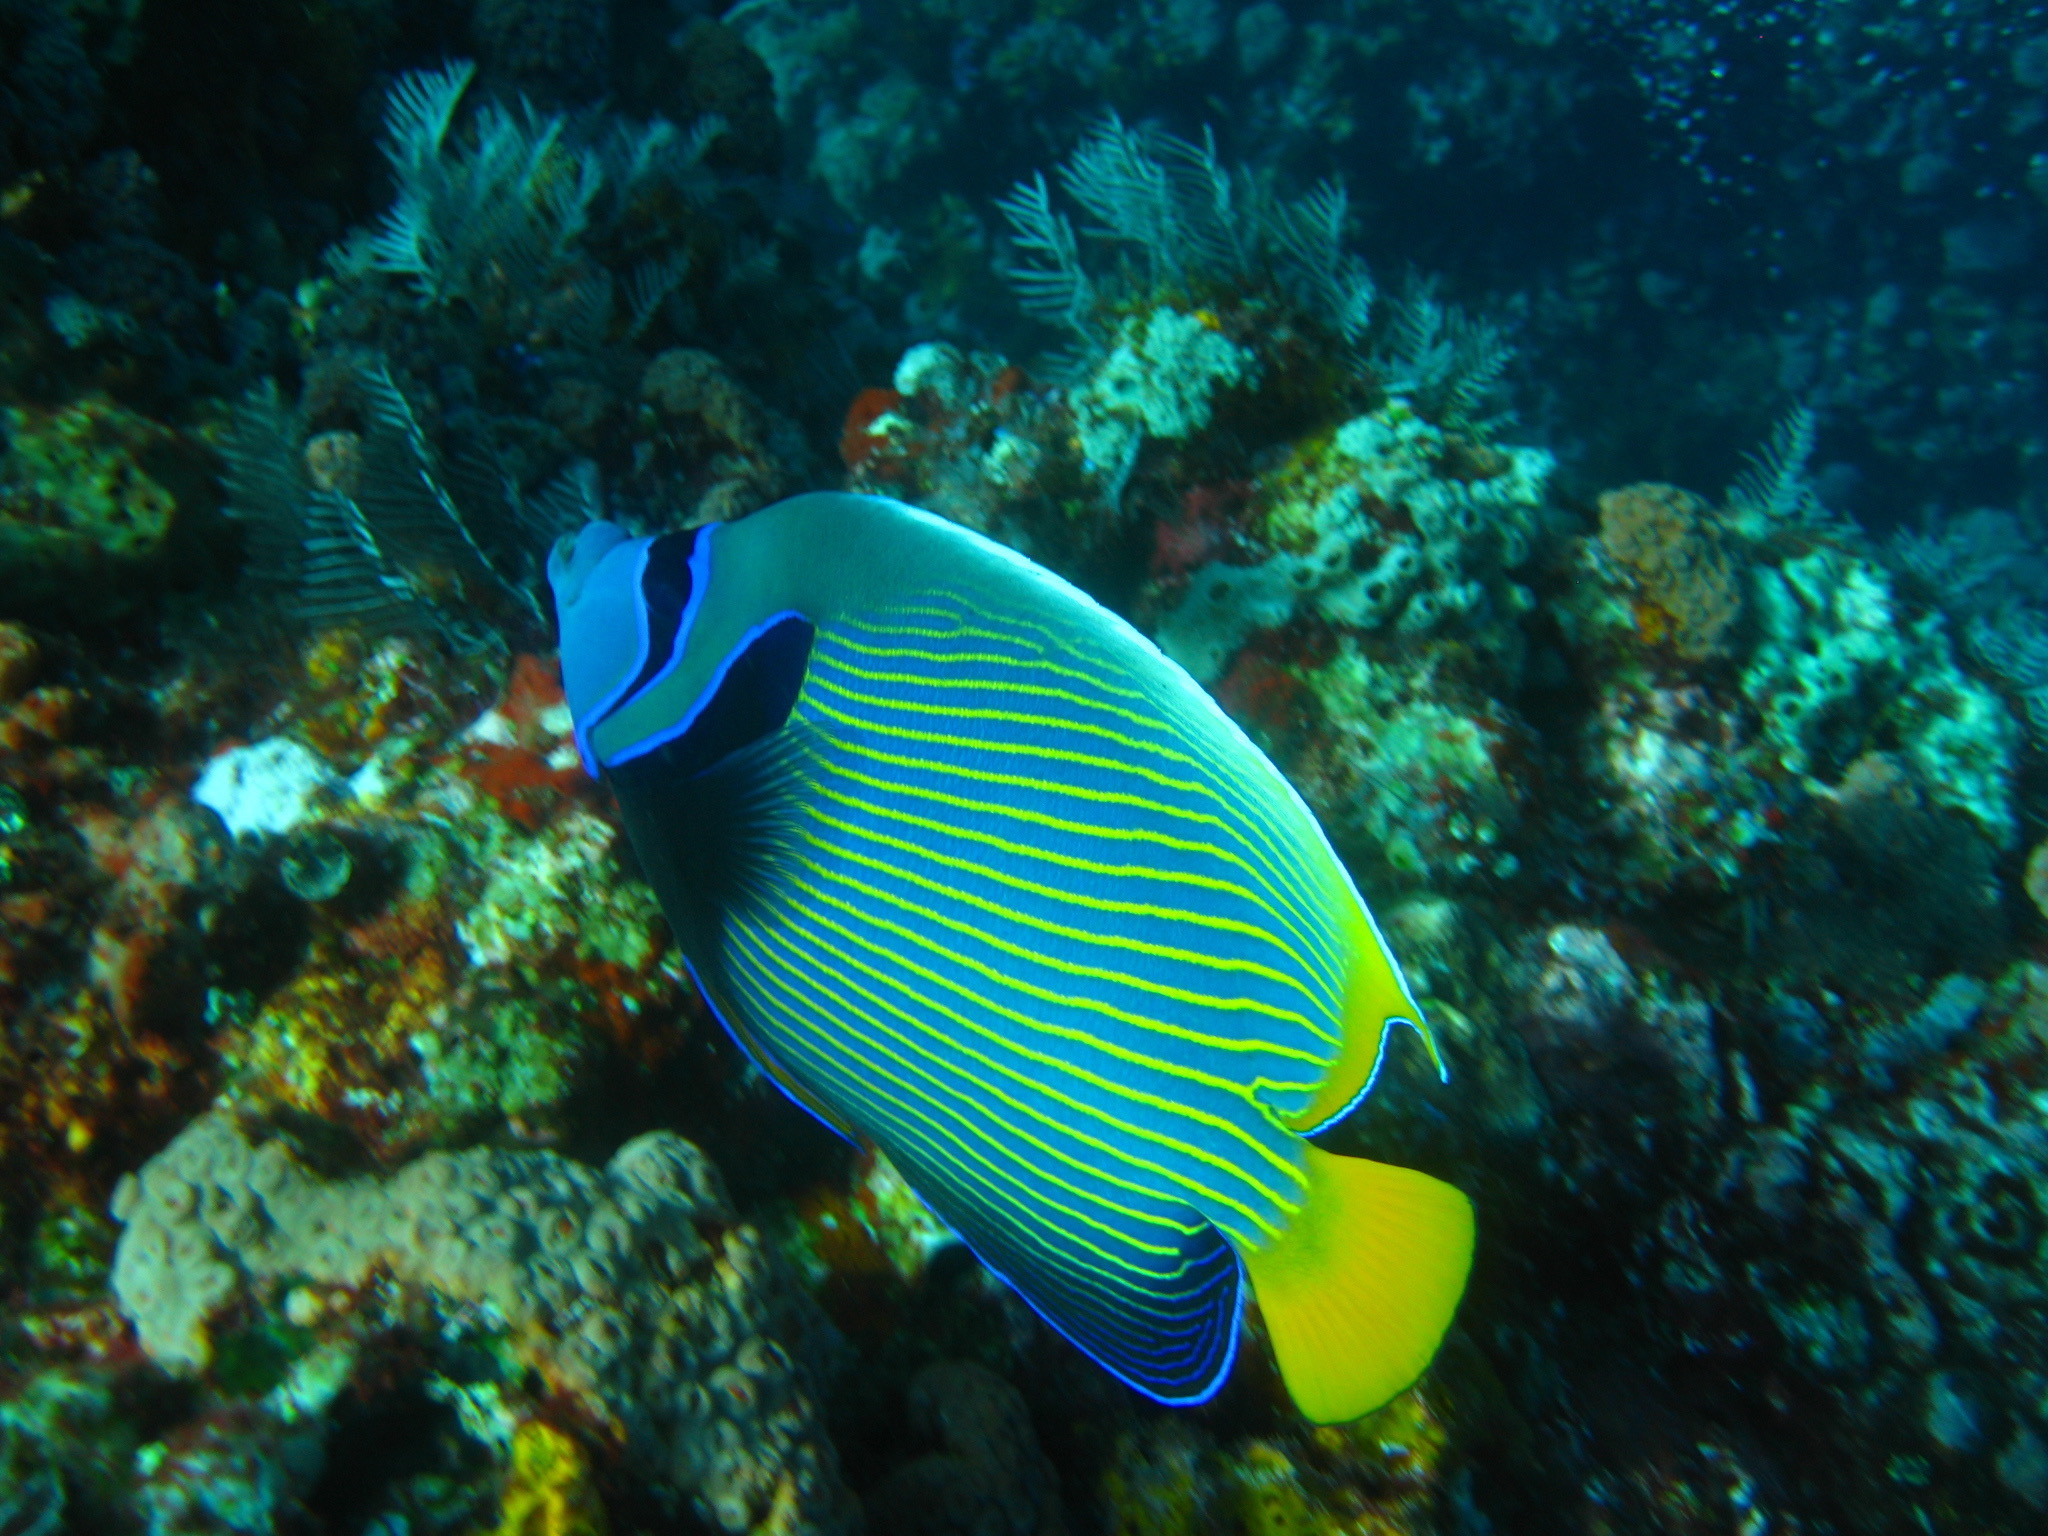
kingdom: Animalia
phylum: Chordata
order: Perciformes
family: Pomacanthidae
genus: Pomacanthus
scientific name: Pomacanthus imperator
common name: Emperor angelfish
